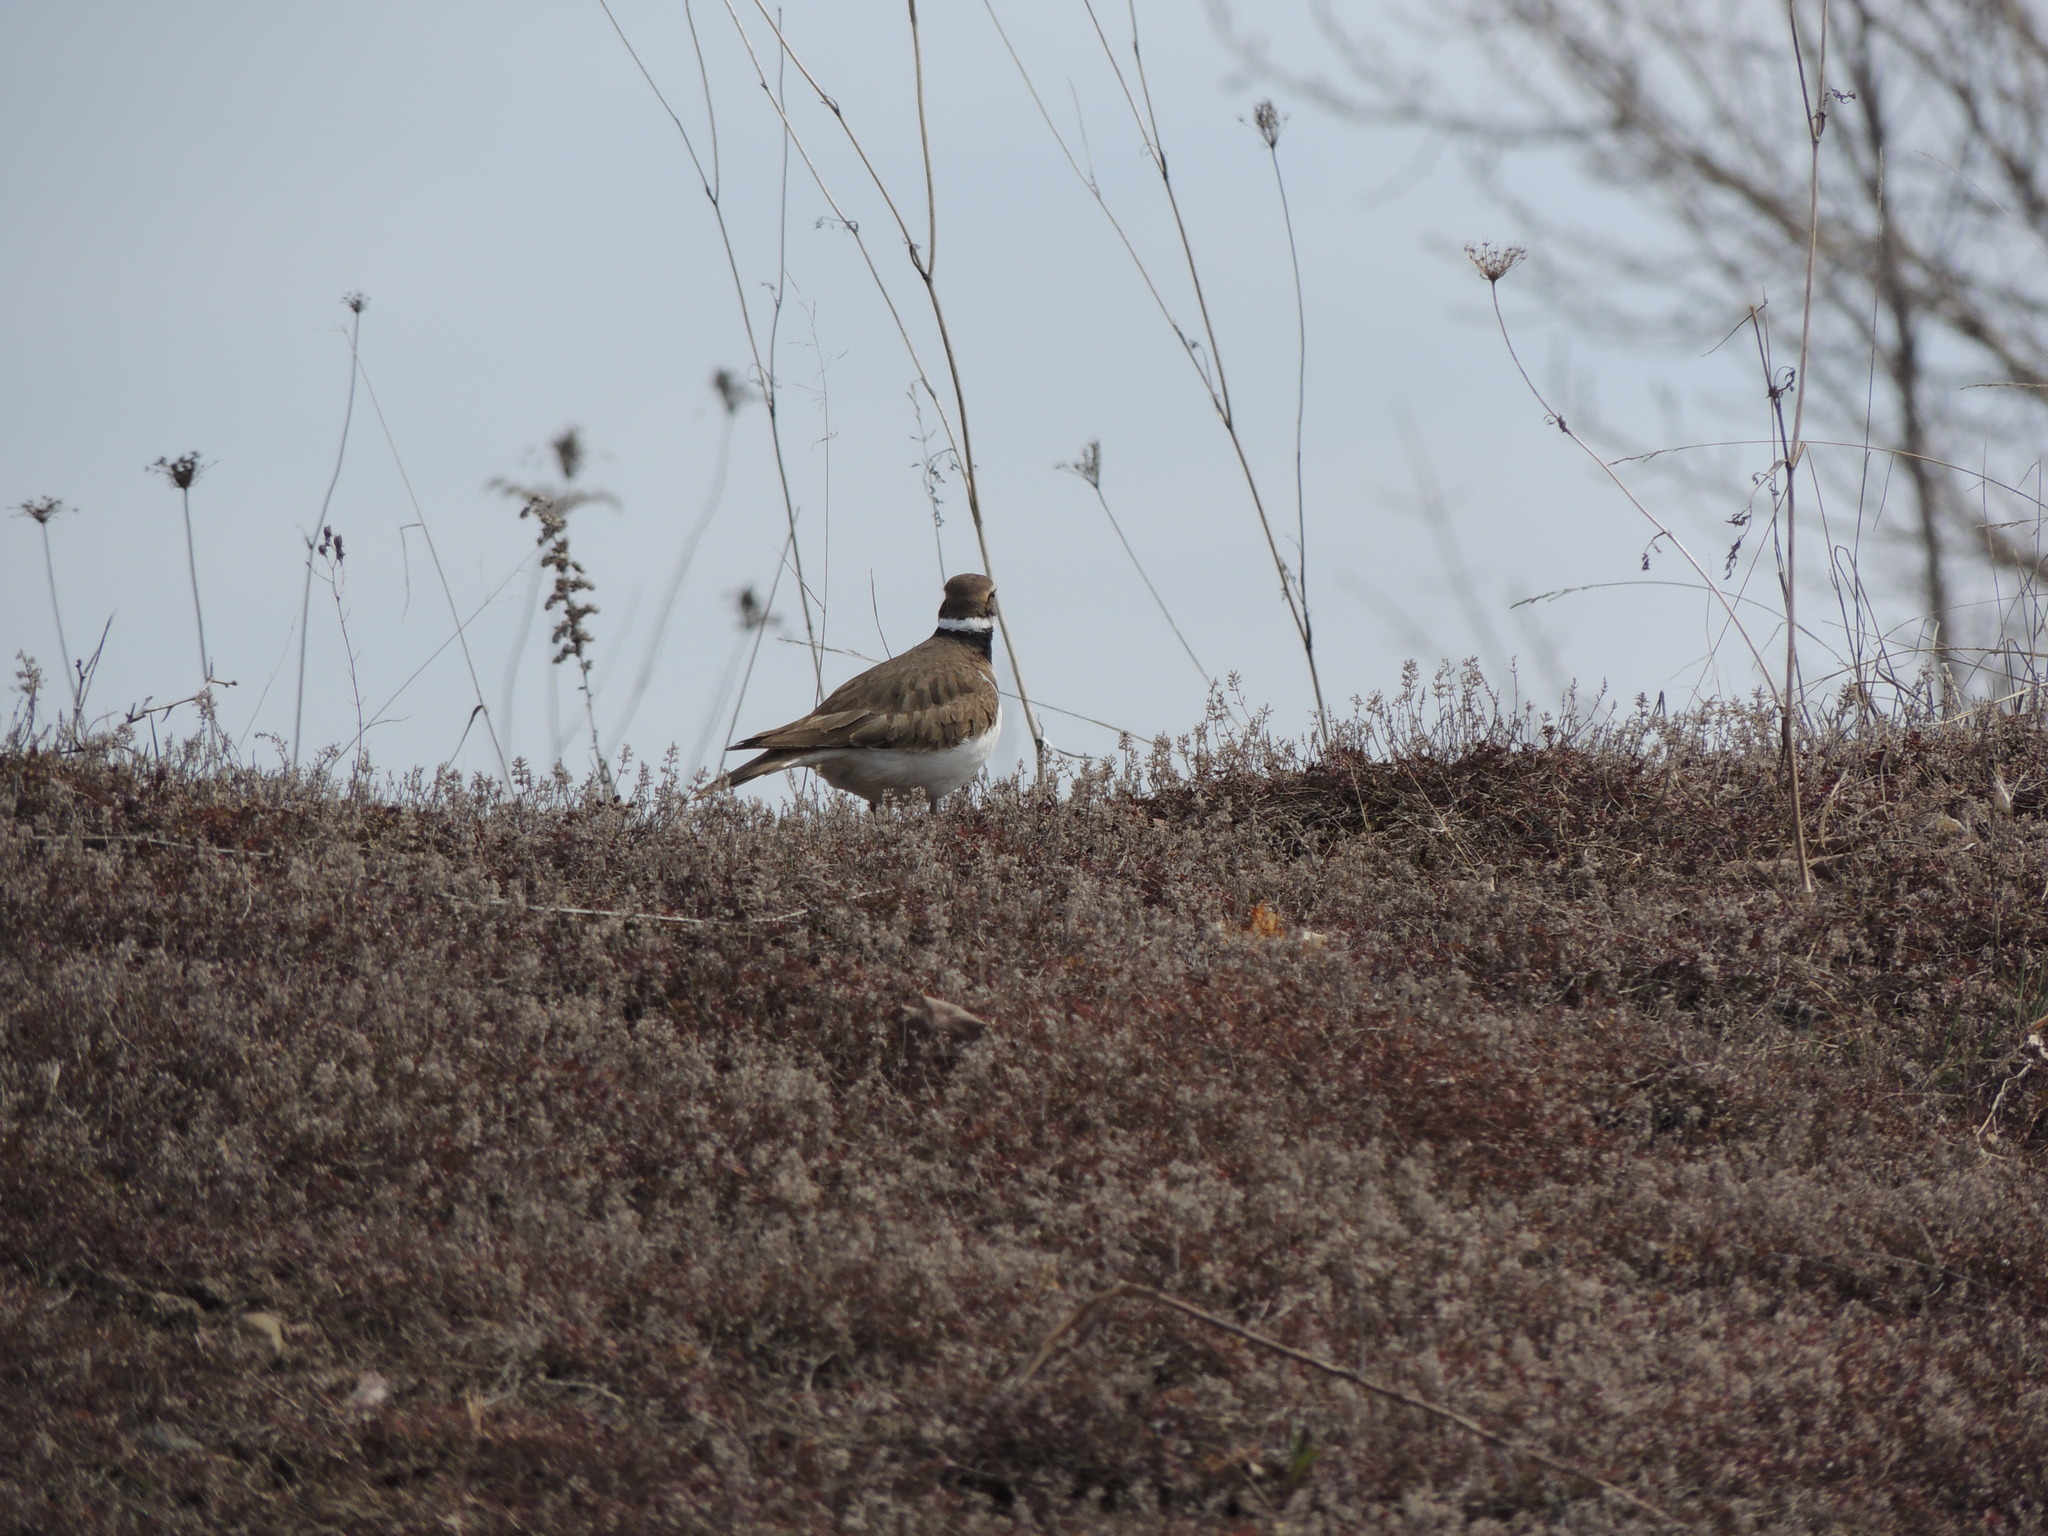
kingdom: Animalia
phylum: Chordata
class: Aves
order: Charadriiformes
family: Charadriidae
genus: Charadrius
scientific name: Charadrius vociferus
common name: Killdeer
